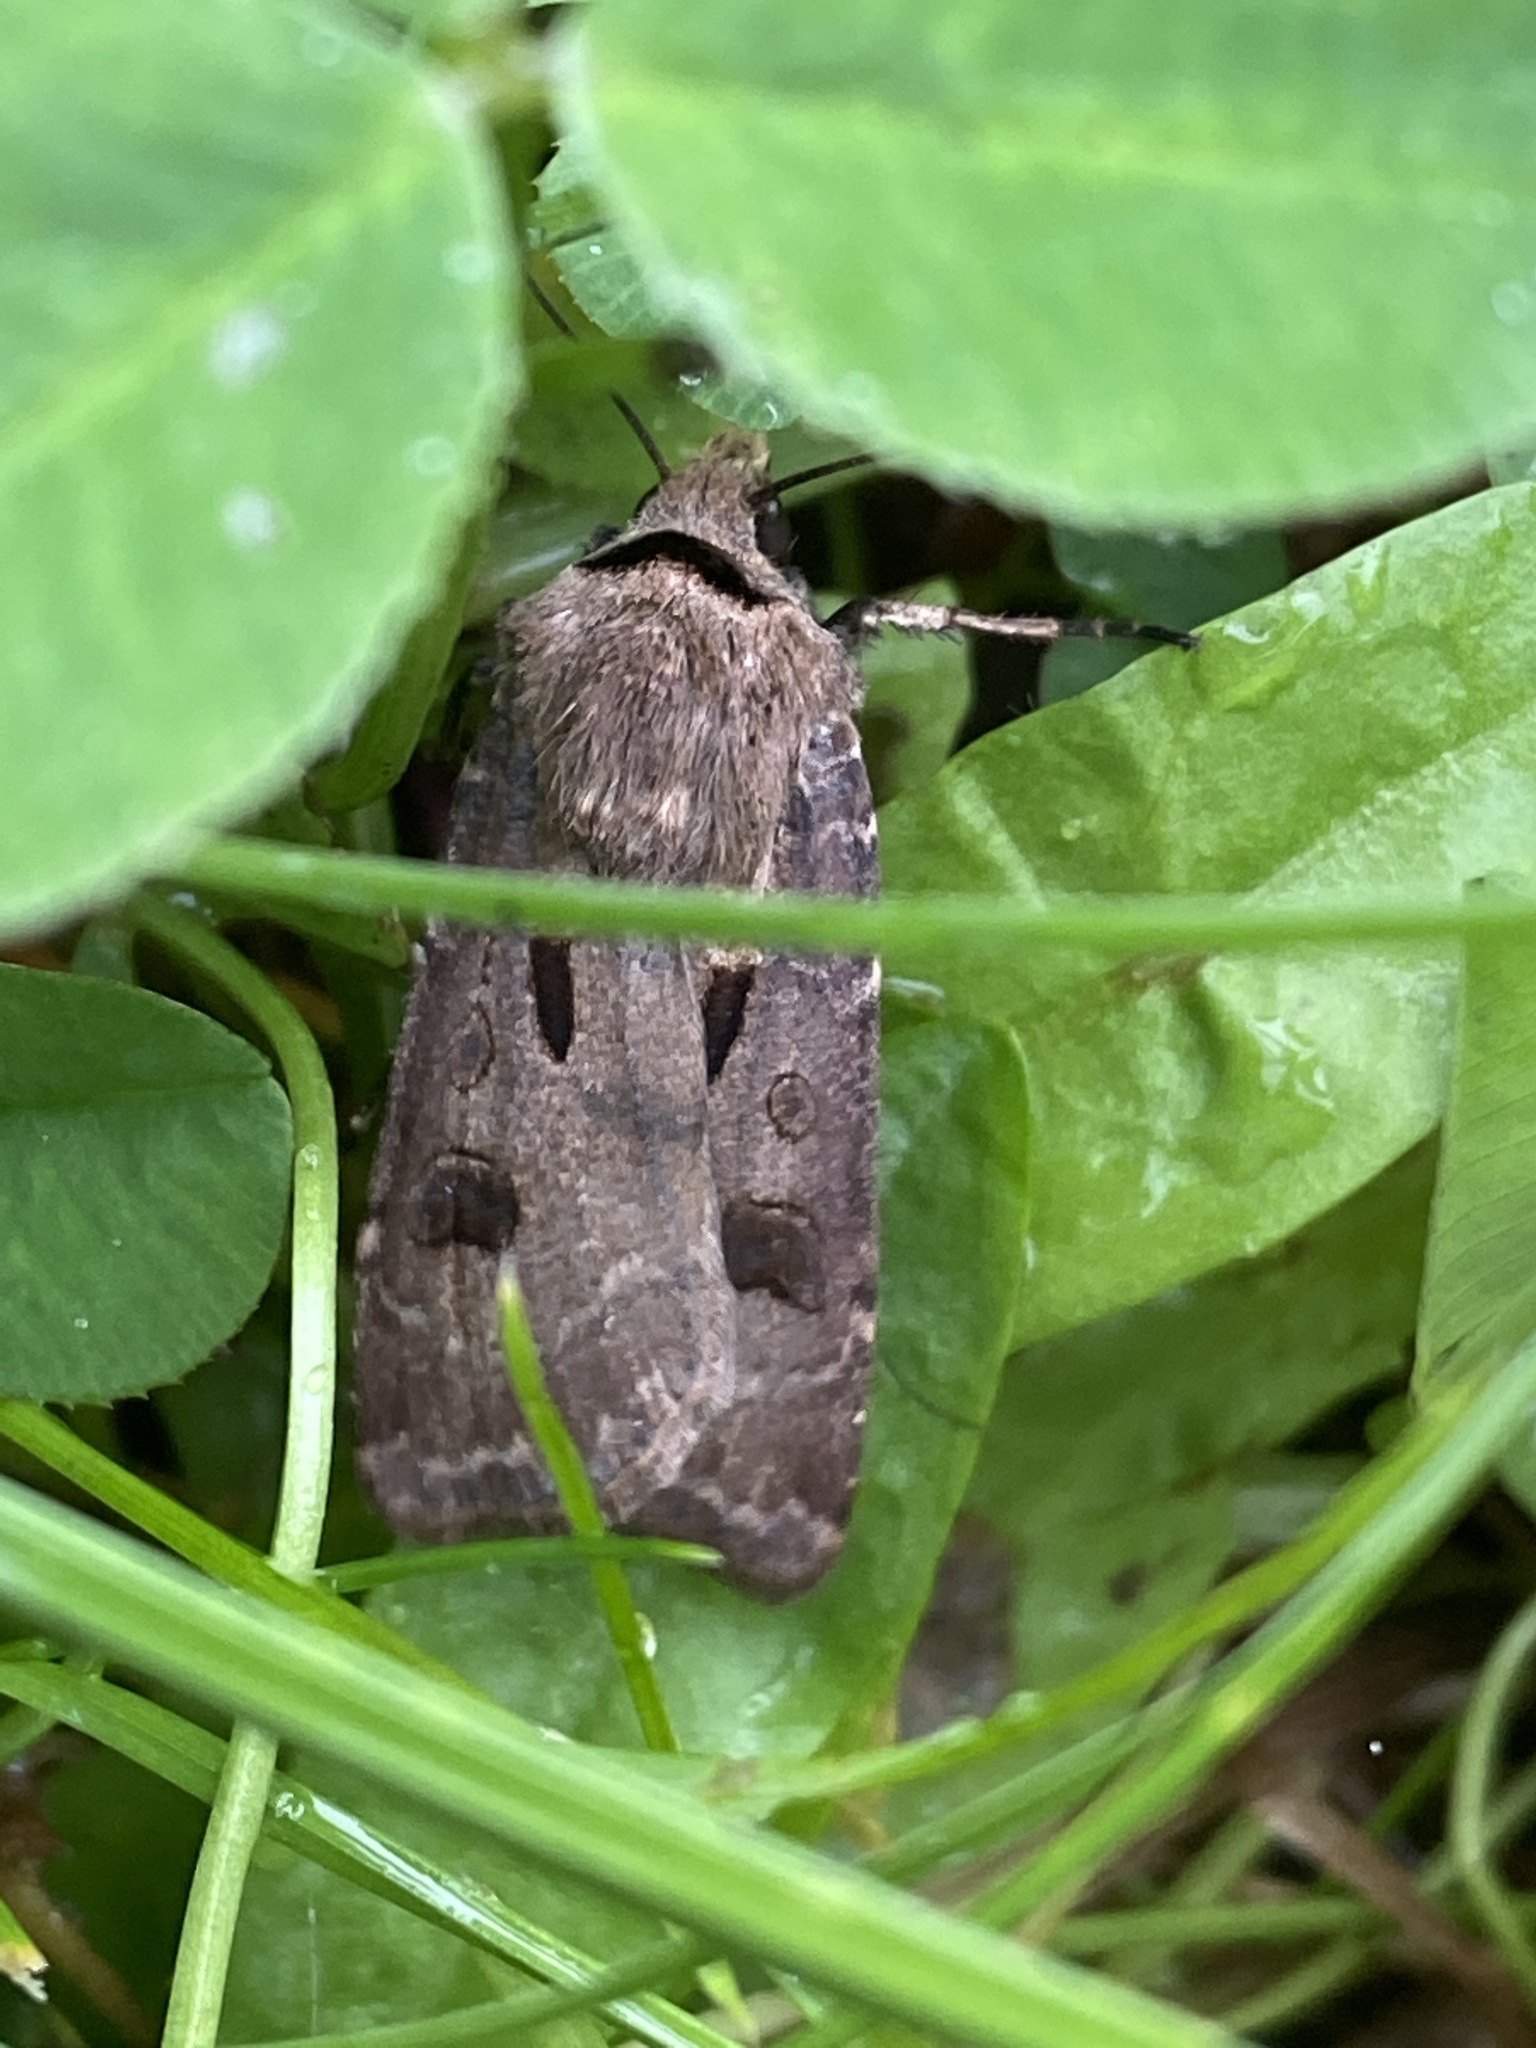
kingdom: Animalia
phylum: Arthropoda
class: Insecta
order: Lepidoptera
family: Noctuidae
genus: Agrotis
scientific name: Agrotis exclamationis
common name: Heart and dart
